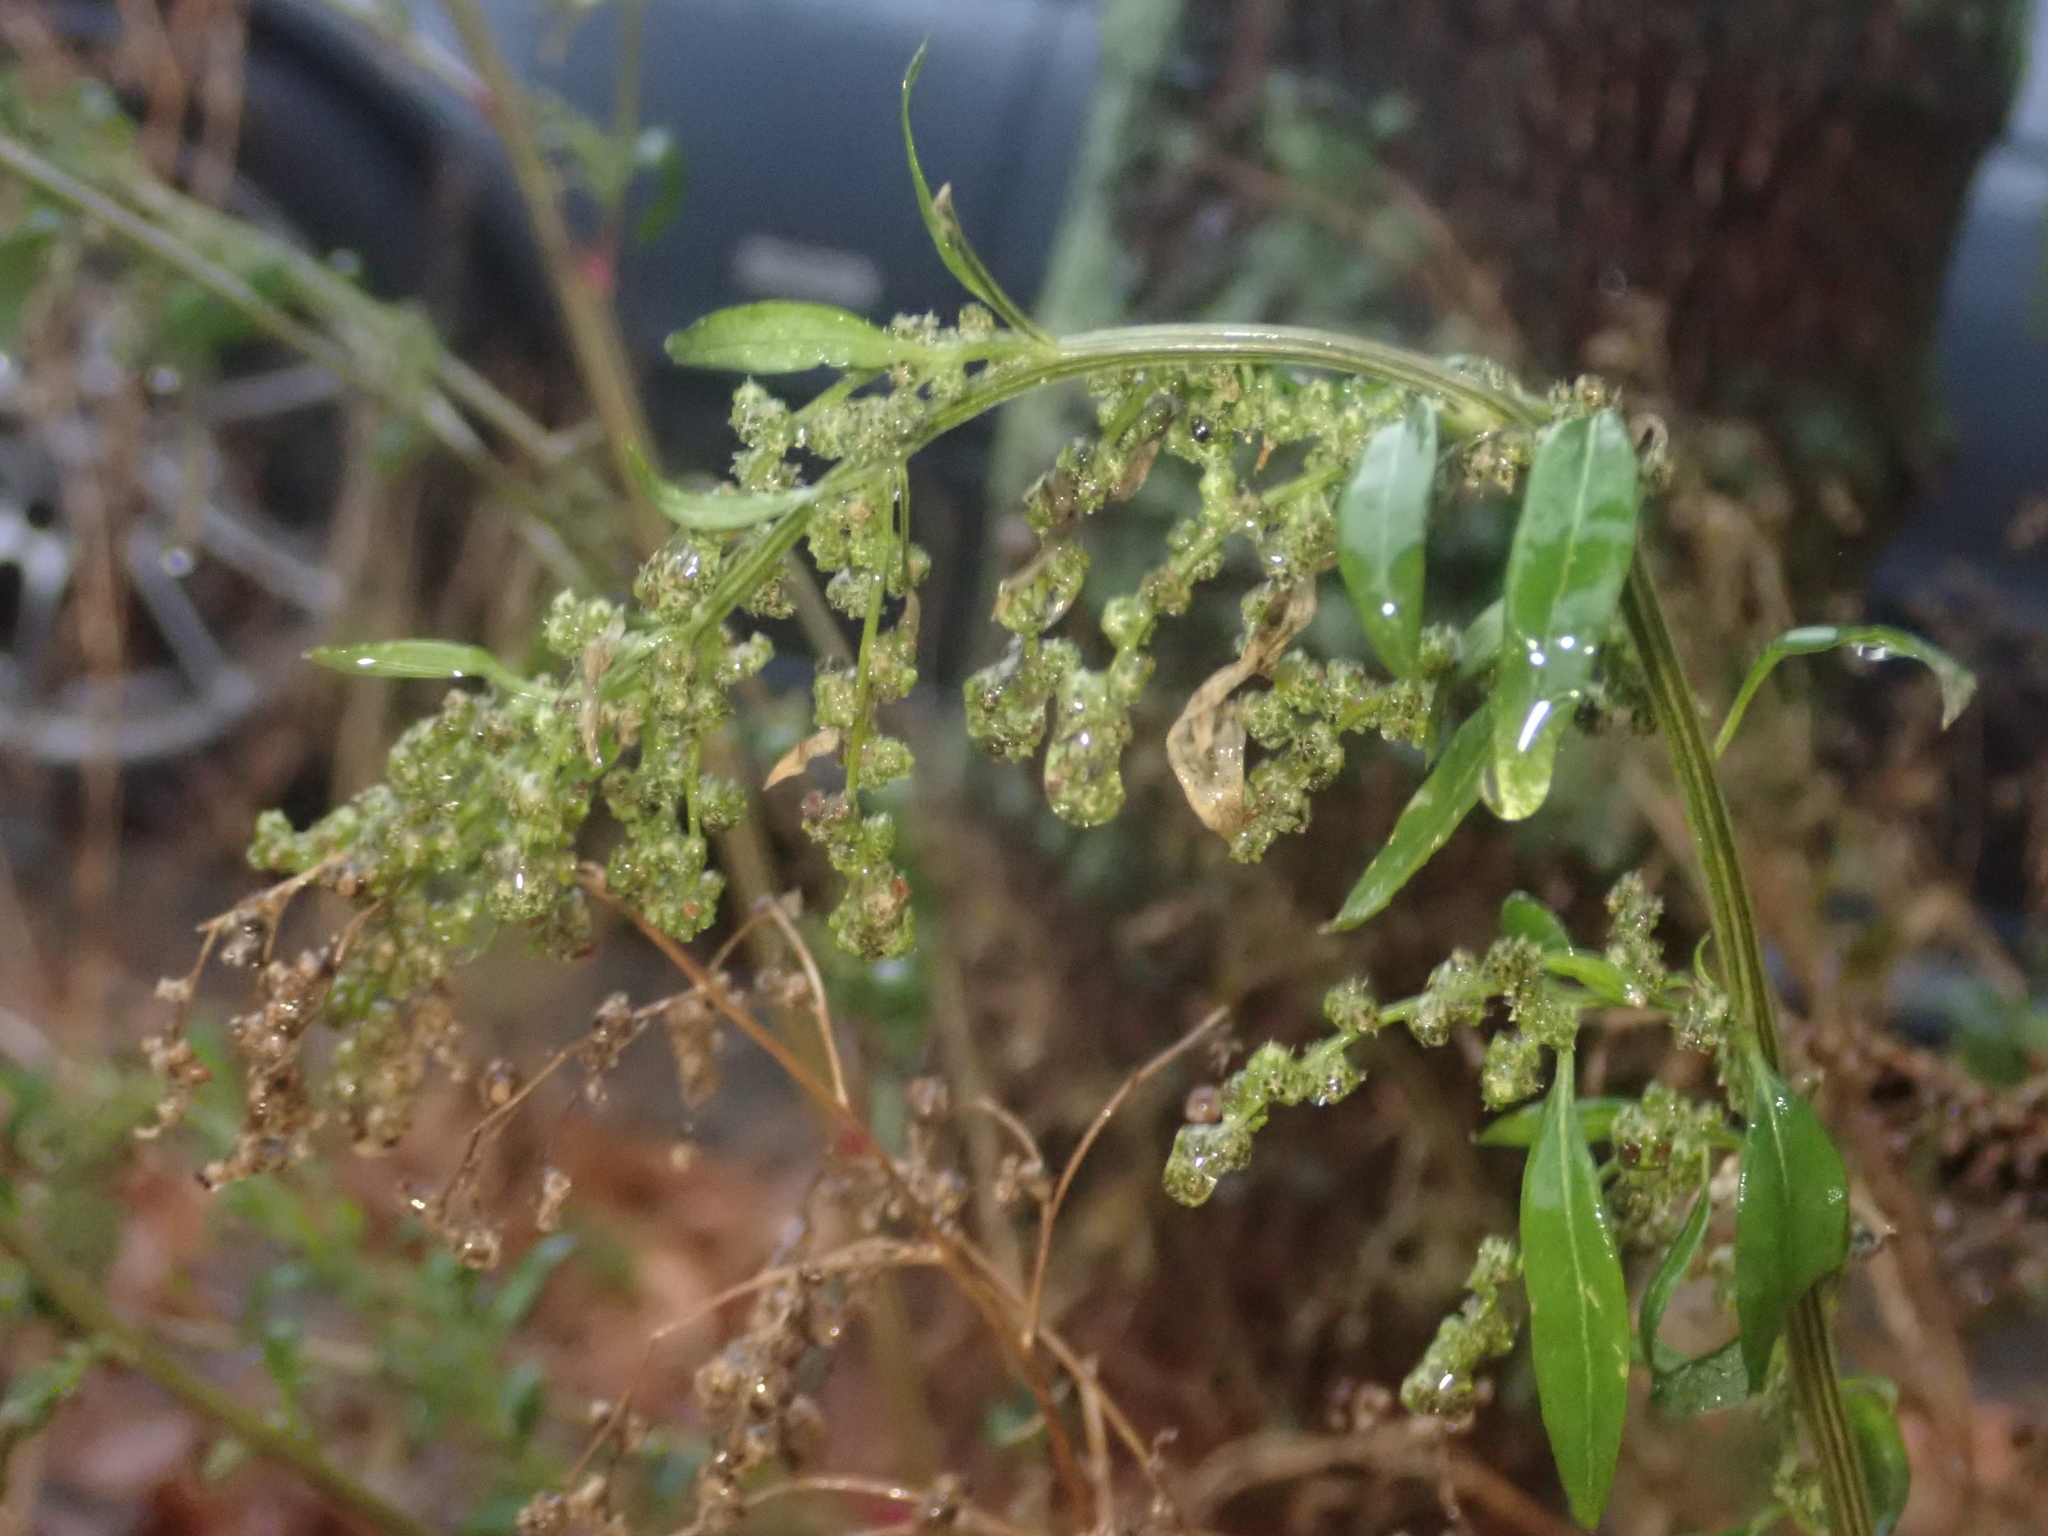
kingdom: Plantae
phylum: Tracheophyta
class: Magnoliopsida
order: Caryophyllales
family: Amaranthaceae
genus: Chenopodium
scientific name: Chenopodium album
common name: Fat-hen
